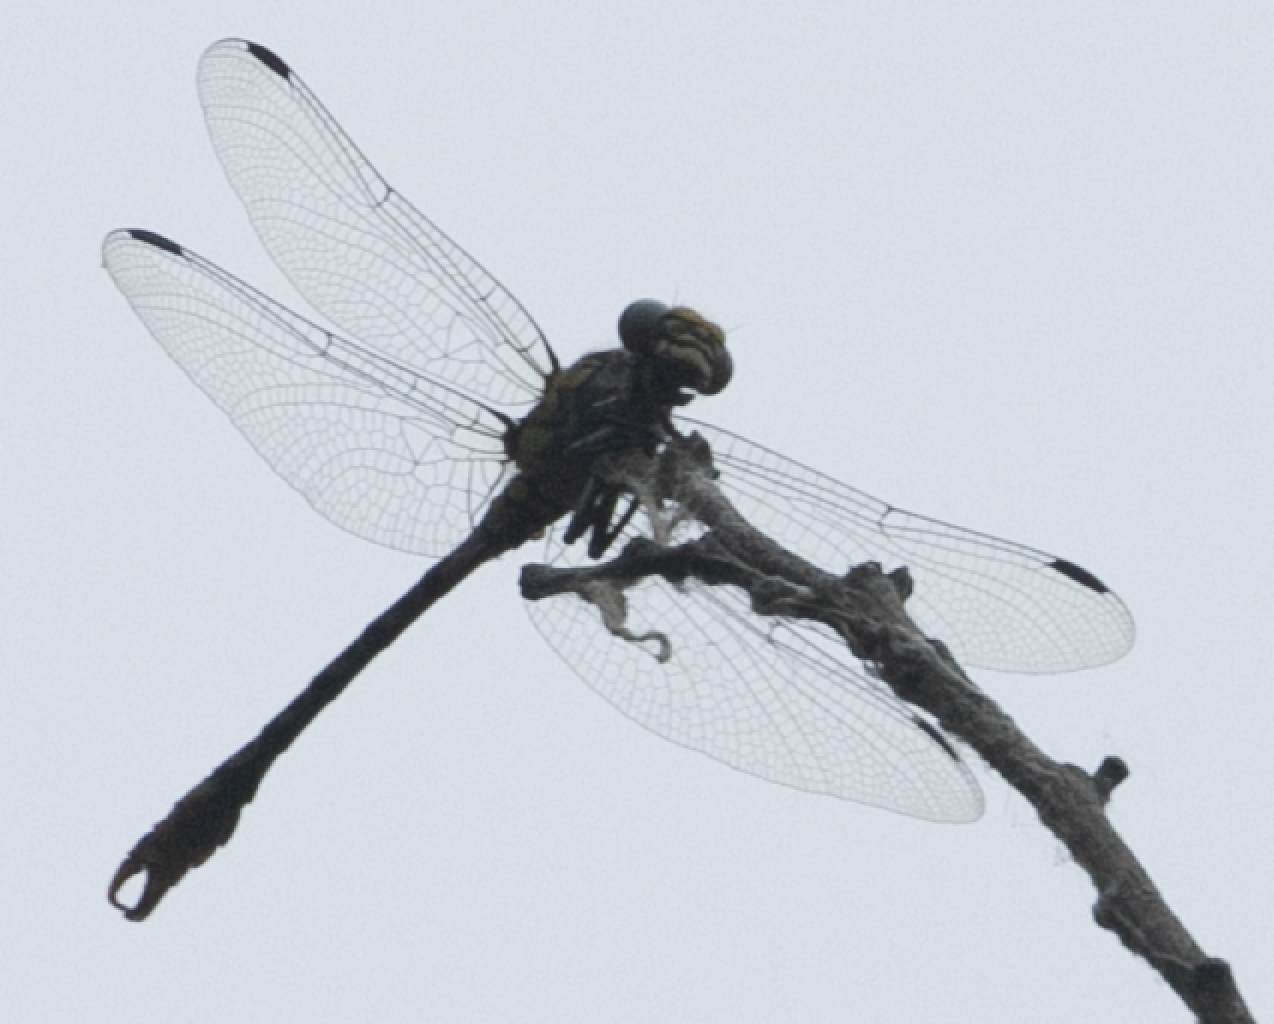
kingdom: Animalia
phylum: Arthropoda
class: Insecta
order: Odonata
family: Gomphidae
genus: Onychogomphus
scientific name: Onychogomphus forcipatus
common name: Small pincertail
